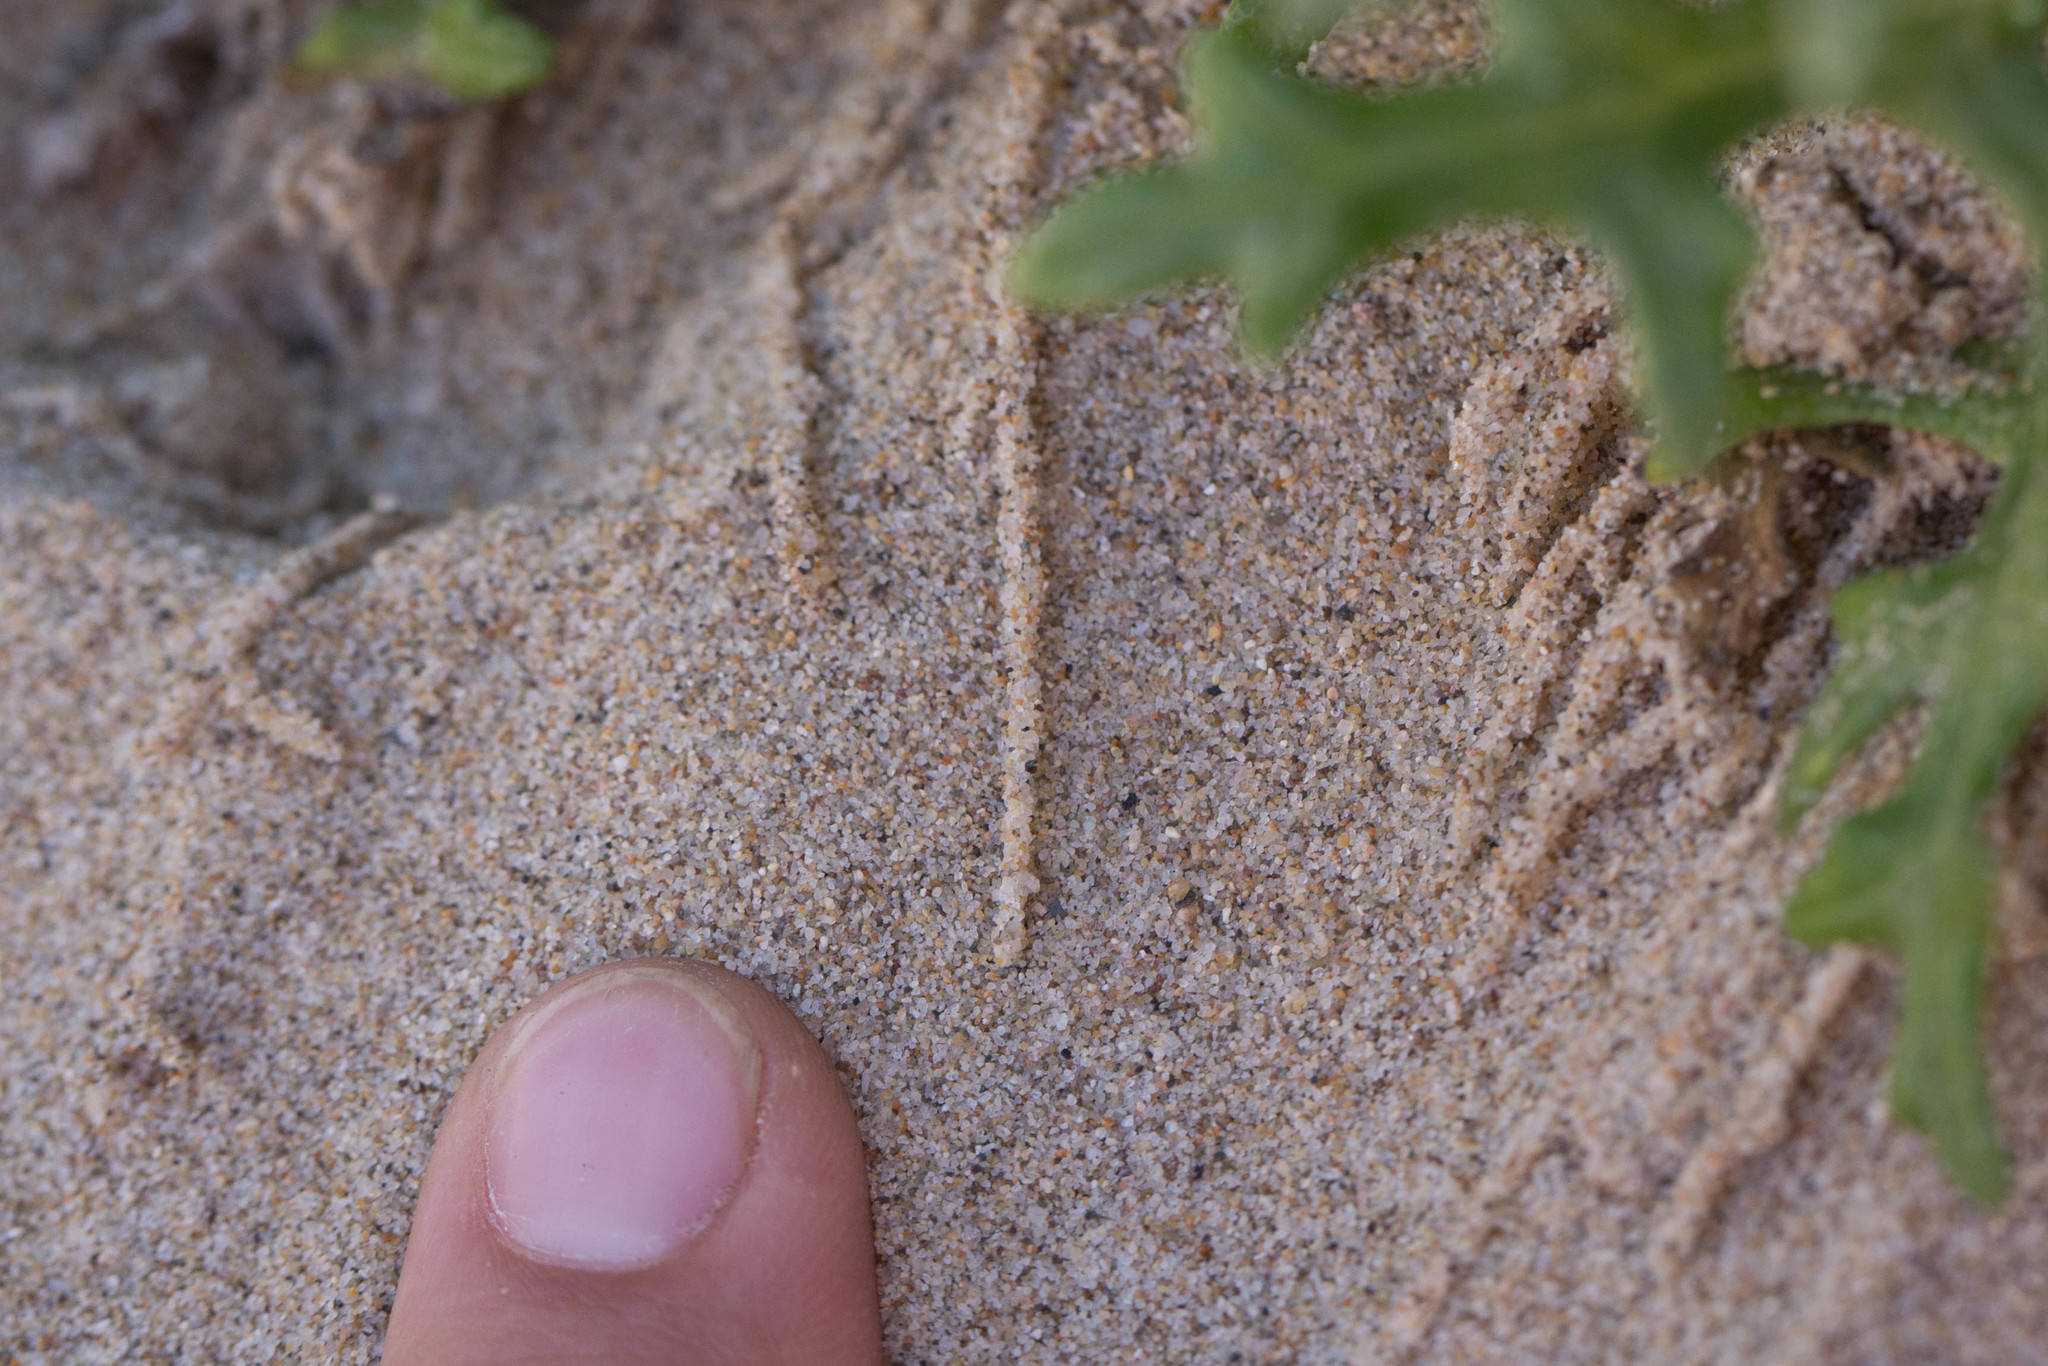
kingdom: Animalia
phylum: Arthropoda
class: Insecta
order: Lepidoptera
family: Scythrididae
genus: Areniscythris
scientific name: Areniscythris brachypteris
